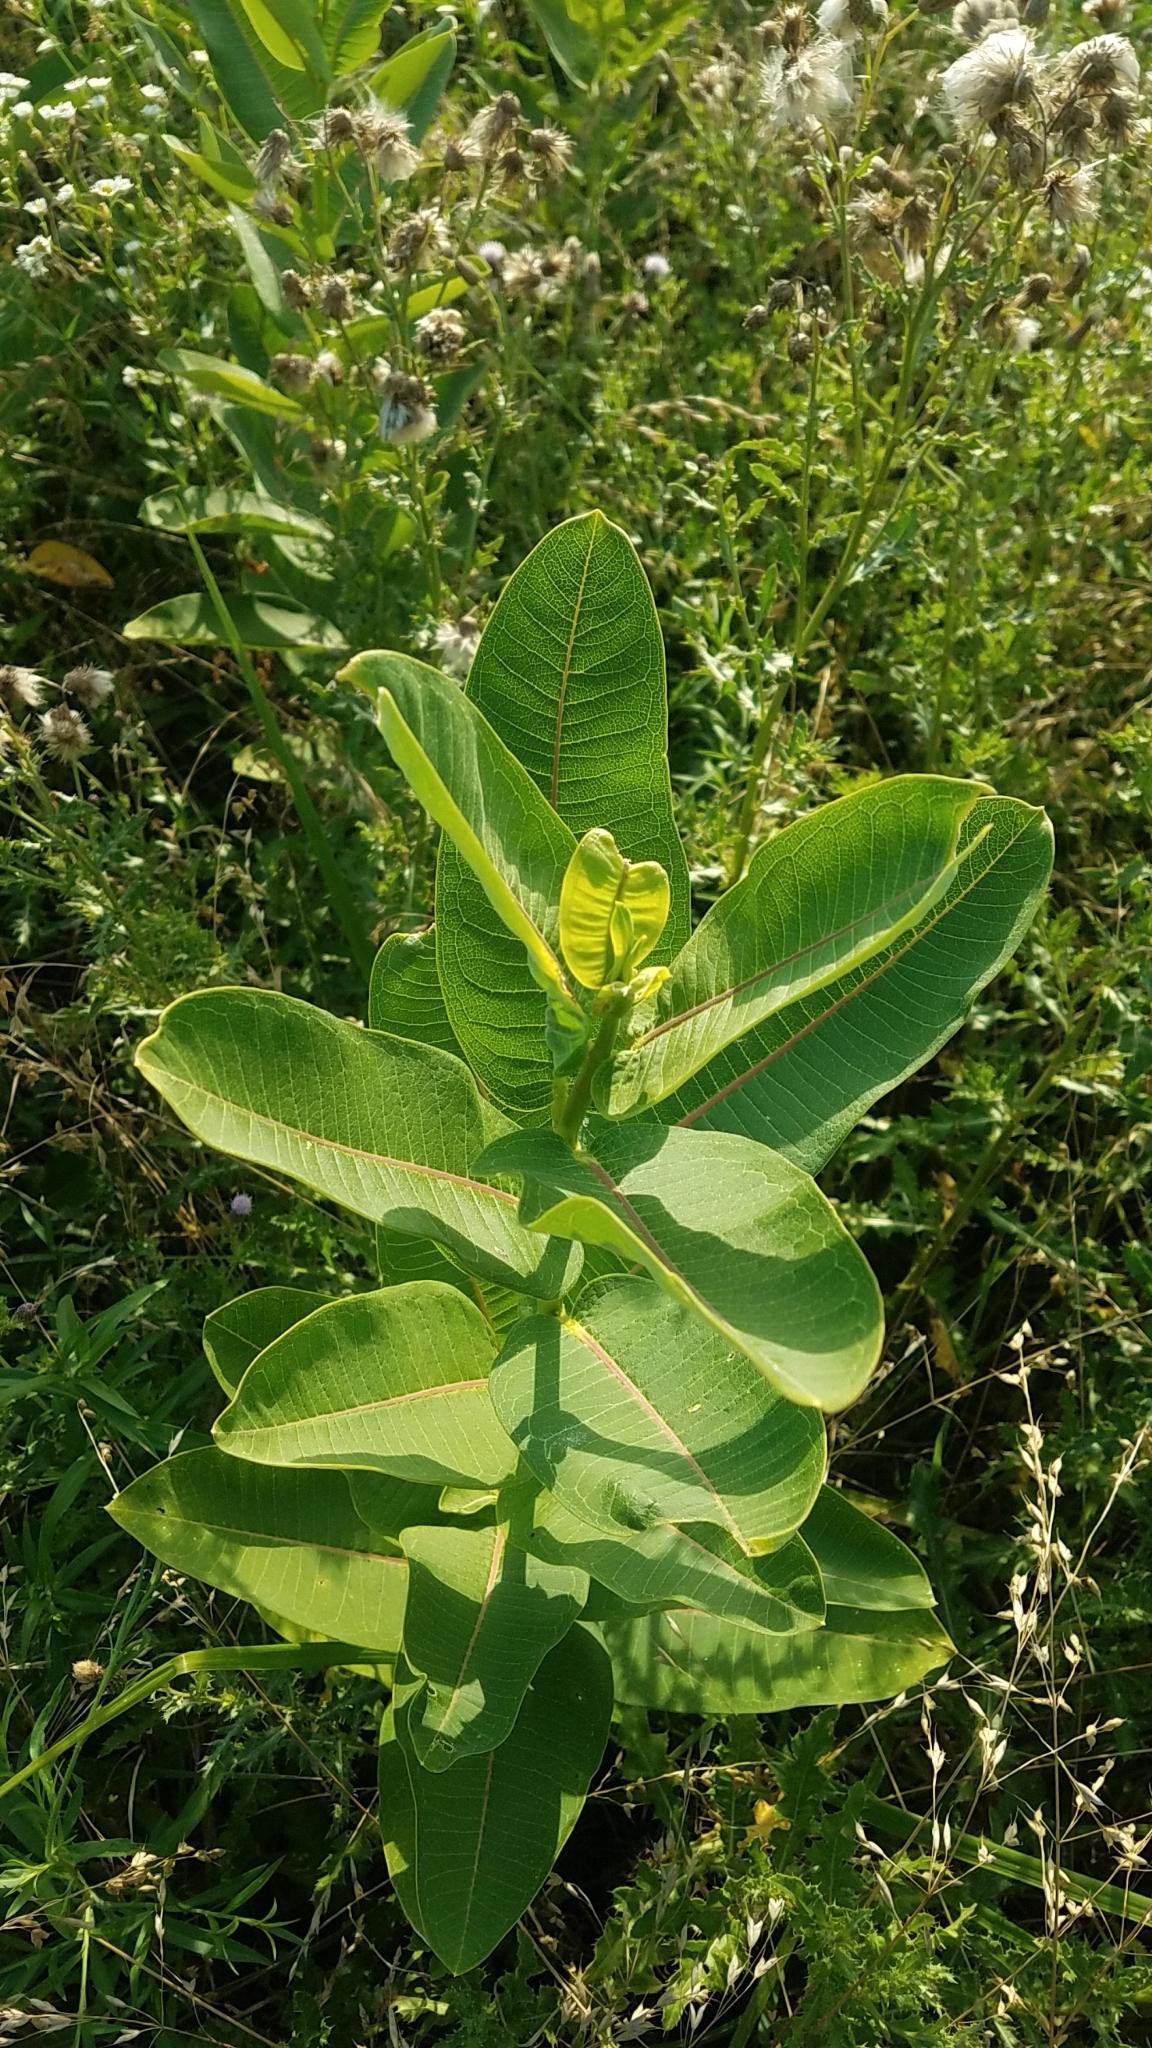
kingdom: Plantae
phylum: Tracheophyta
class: Magnoliopsida
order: Gentianales
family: Apocynaceae
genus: Asclepias
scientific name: Asclepias syriaca
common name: Common milkweed
